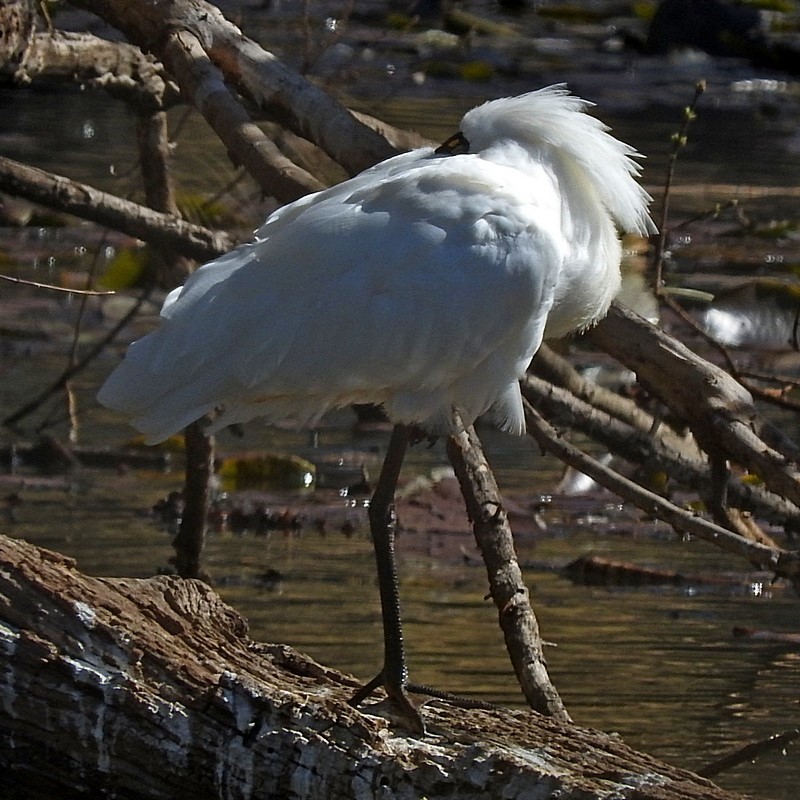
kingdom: Animalia
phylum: Chordata
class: Aves
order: Pelecaniformes
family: Threskiornithidae
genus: Platalea
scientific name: Platalea regia
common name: Royal spoonbill
